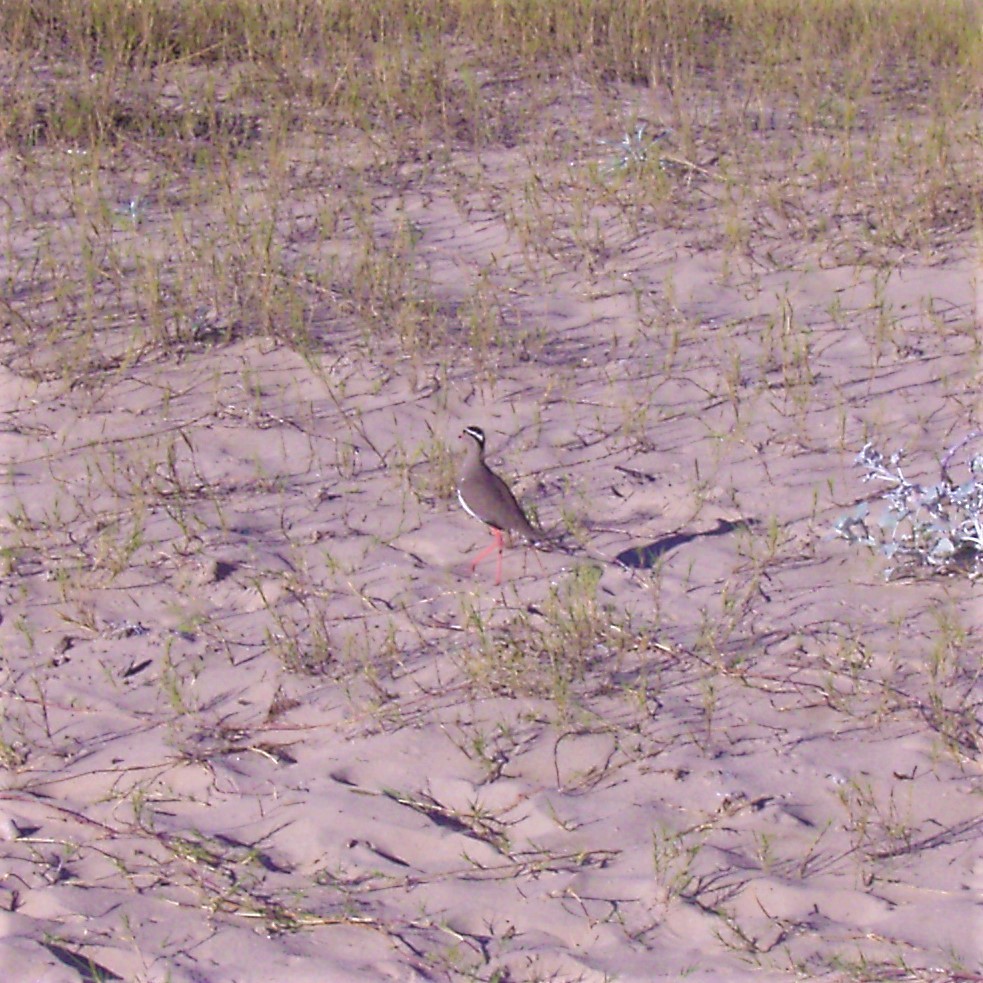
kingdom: Animalia
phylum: Chordata
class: Aves
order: Charadriiformes
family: Charadriidae
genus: Vanellus
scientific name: Vanellus coronatus
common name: Crowned lapwing
